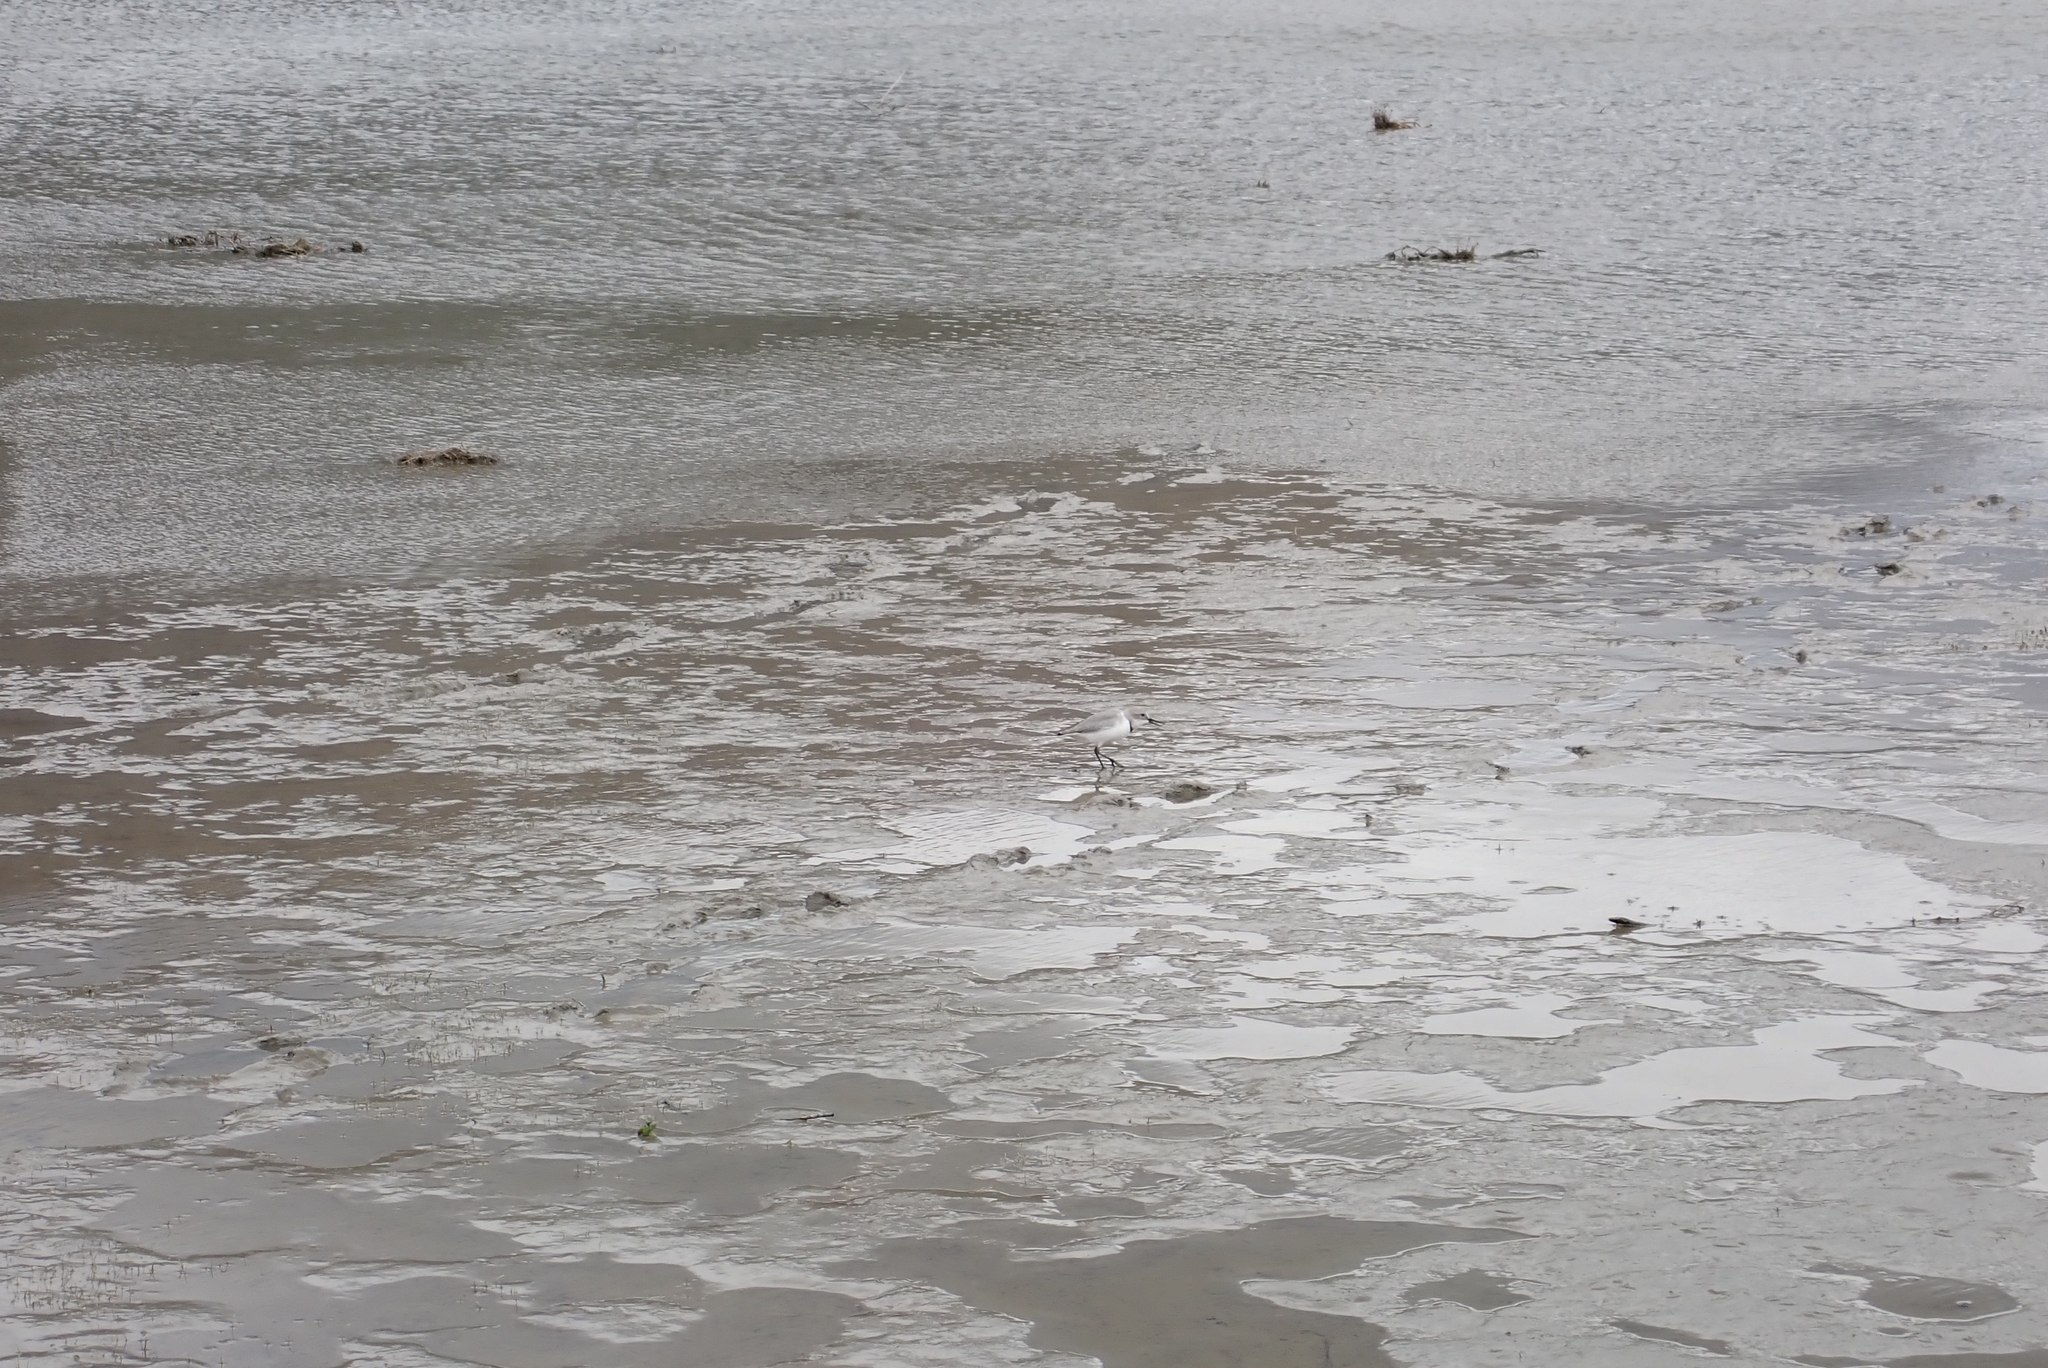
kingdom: Animalia
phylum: Chordata
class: Aves
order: Charadriiformes
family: Charadriidae
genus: Anarhynchus
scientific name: Anarhynchus frontalis
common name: Wrybill
